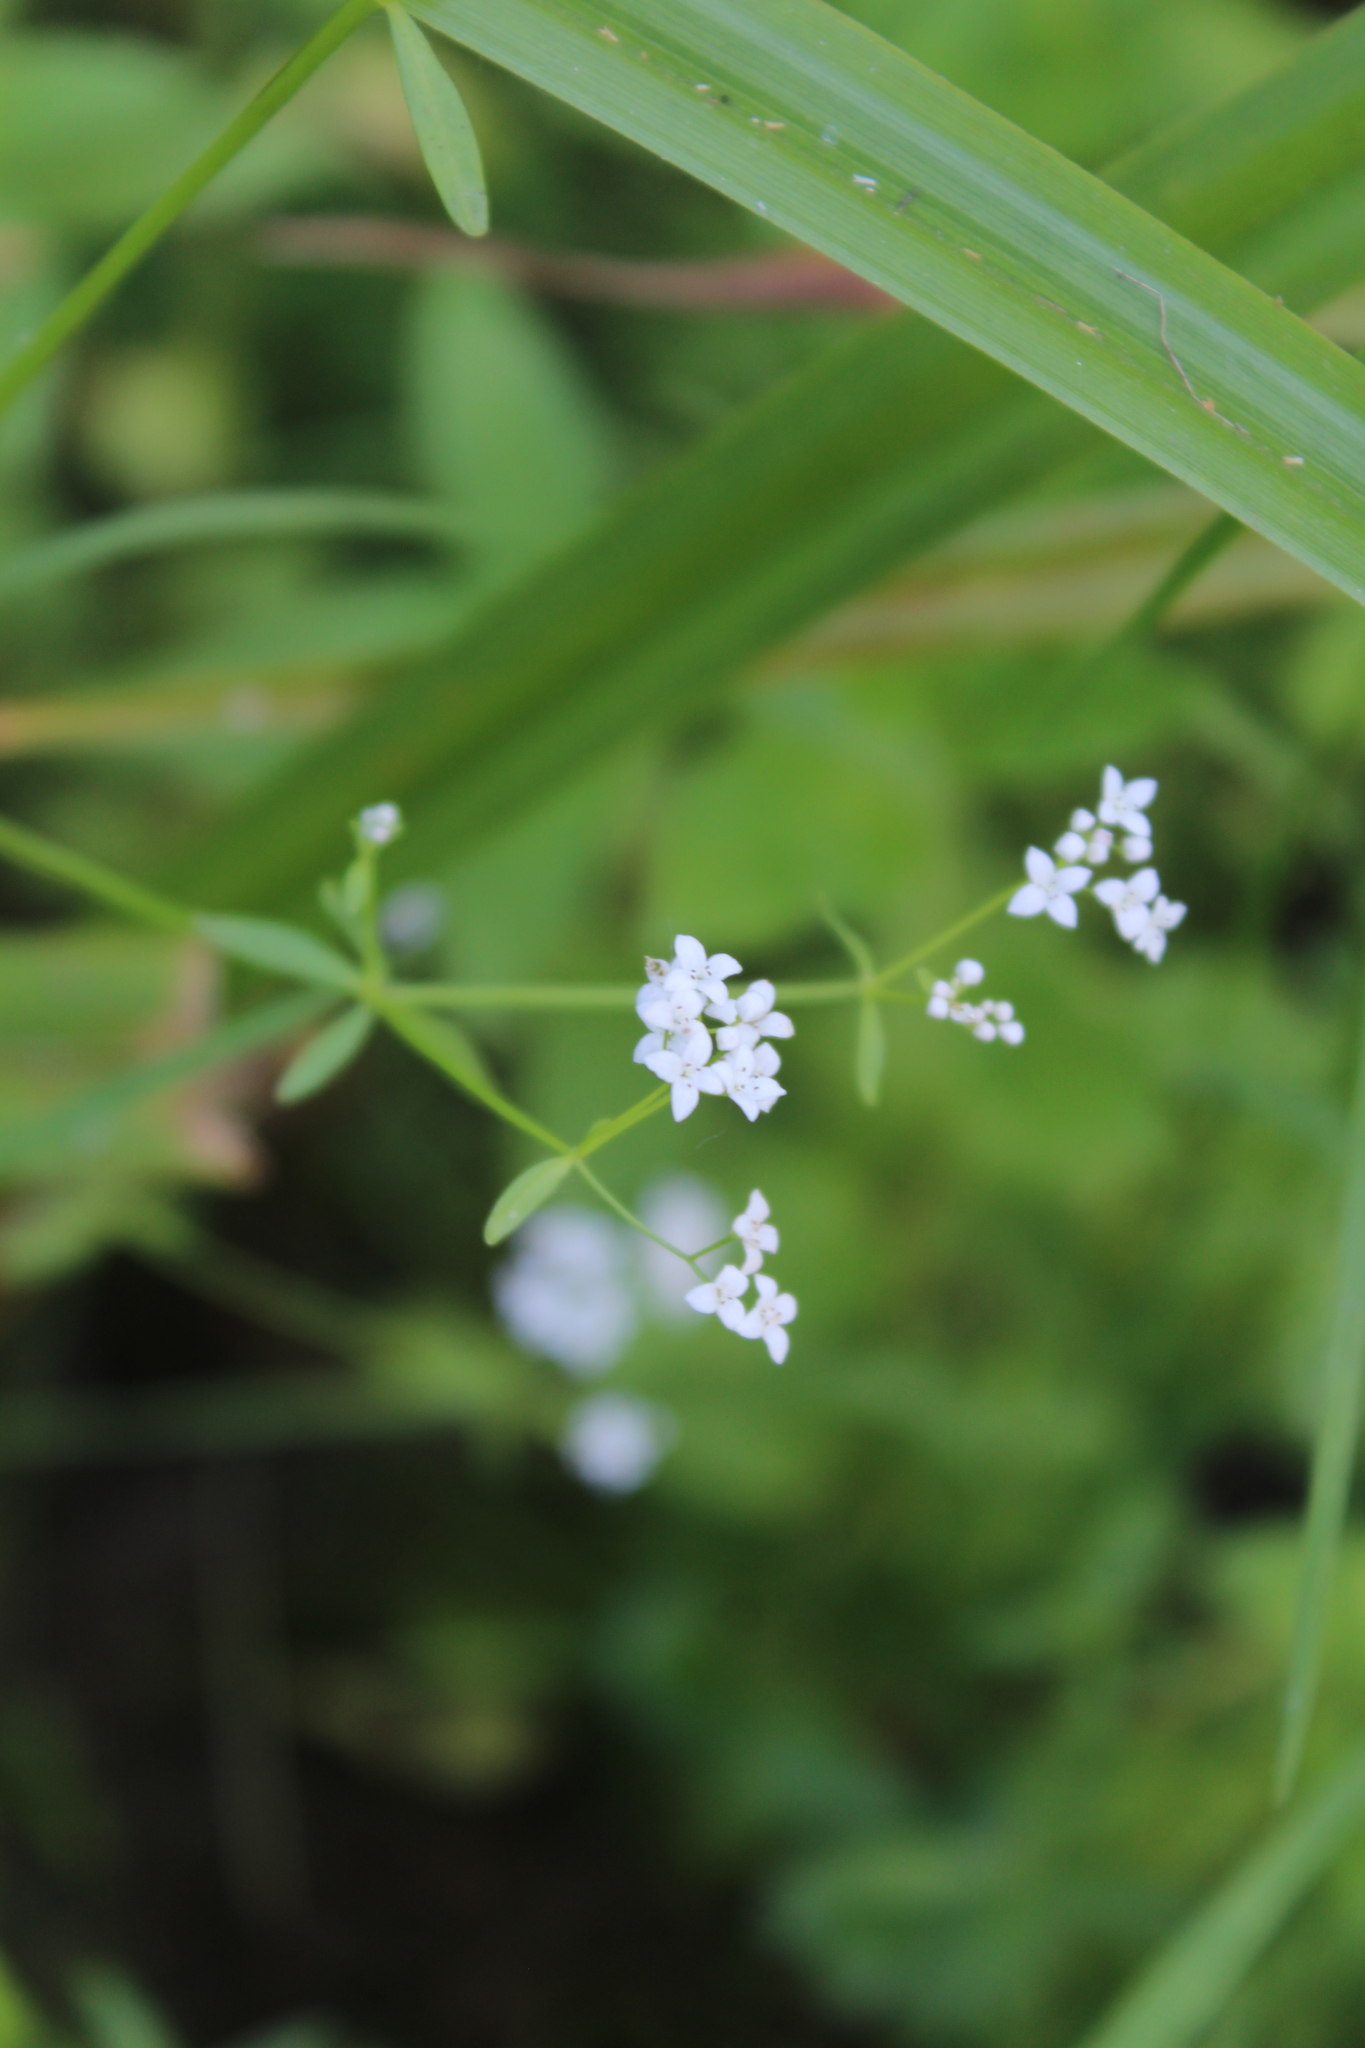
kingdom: Plantae
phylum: Tracheophyta
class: Magnoliopsida
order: Gentianales
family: Rubiaceae
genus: Galium
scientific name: Galium palustre
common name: Common marsh-bedstraw
